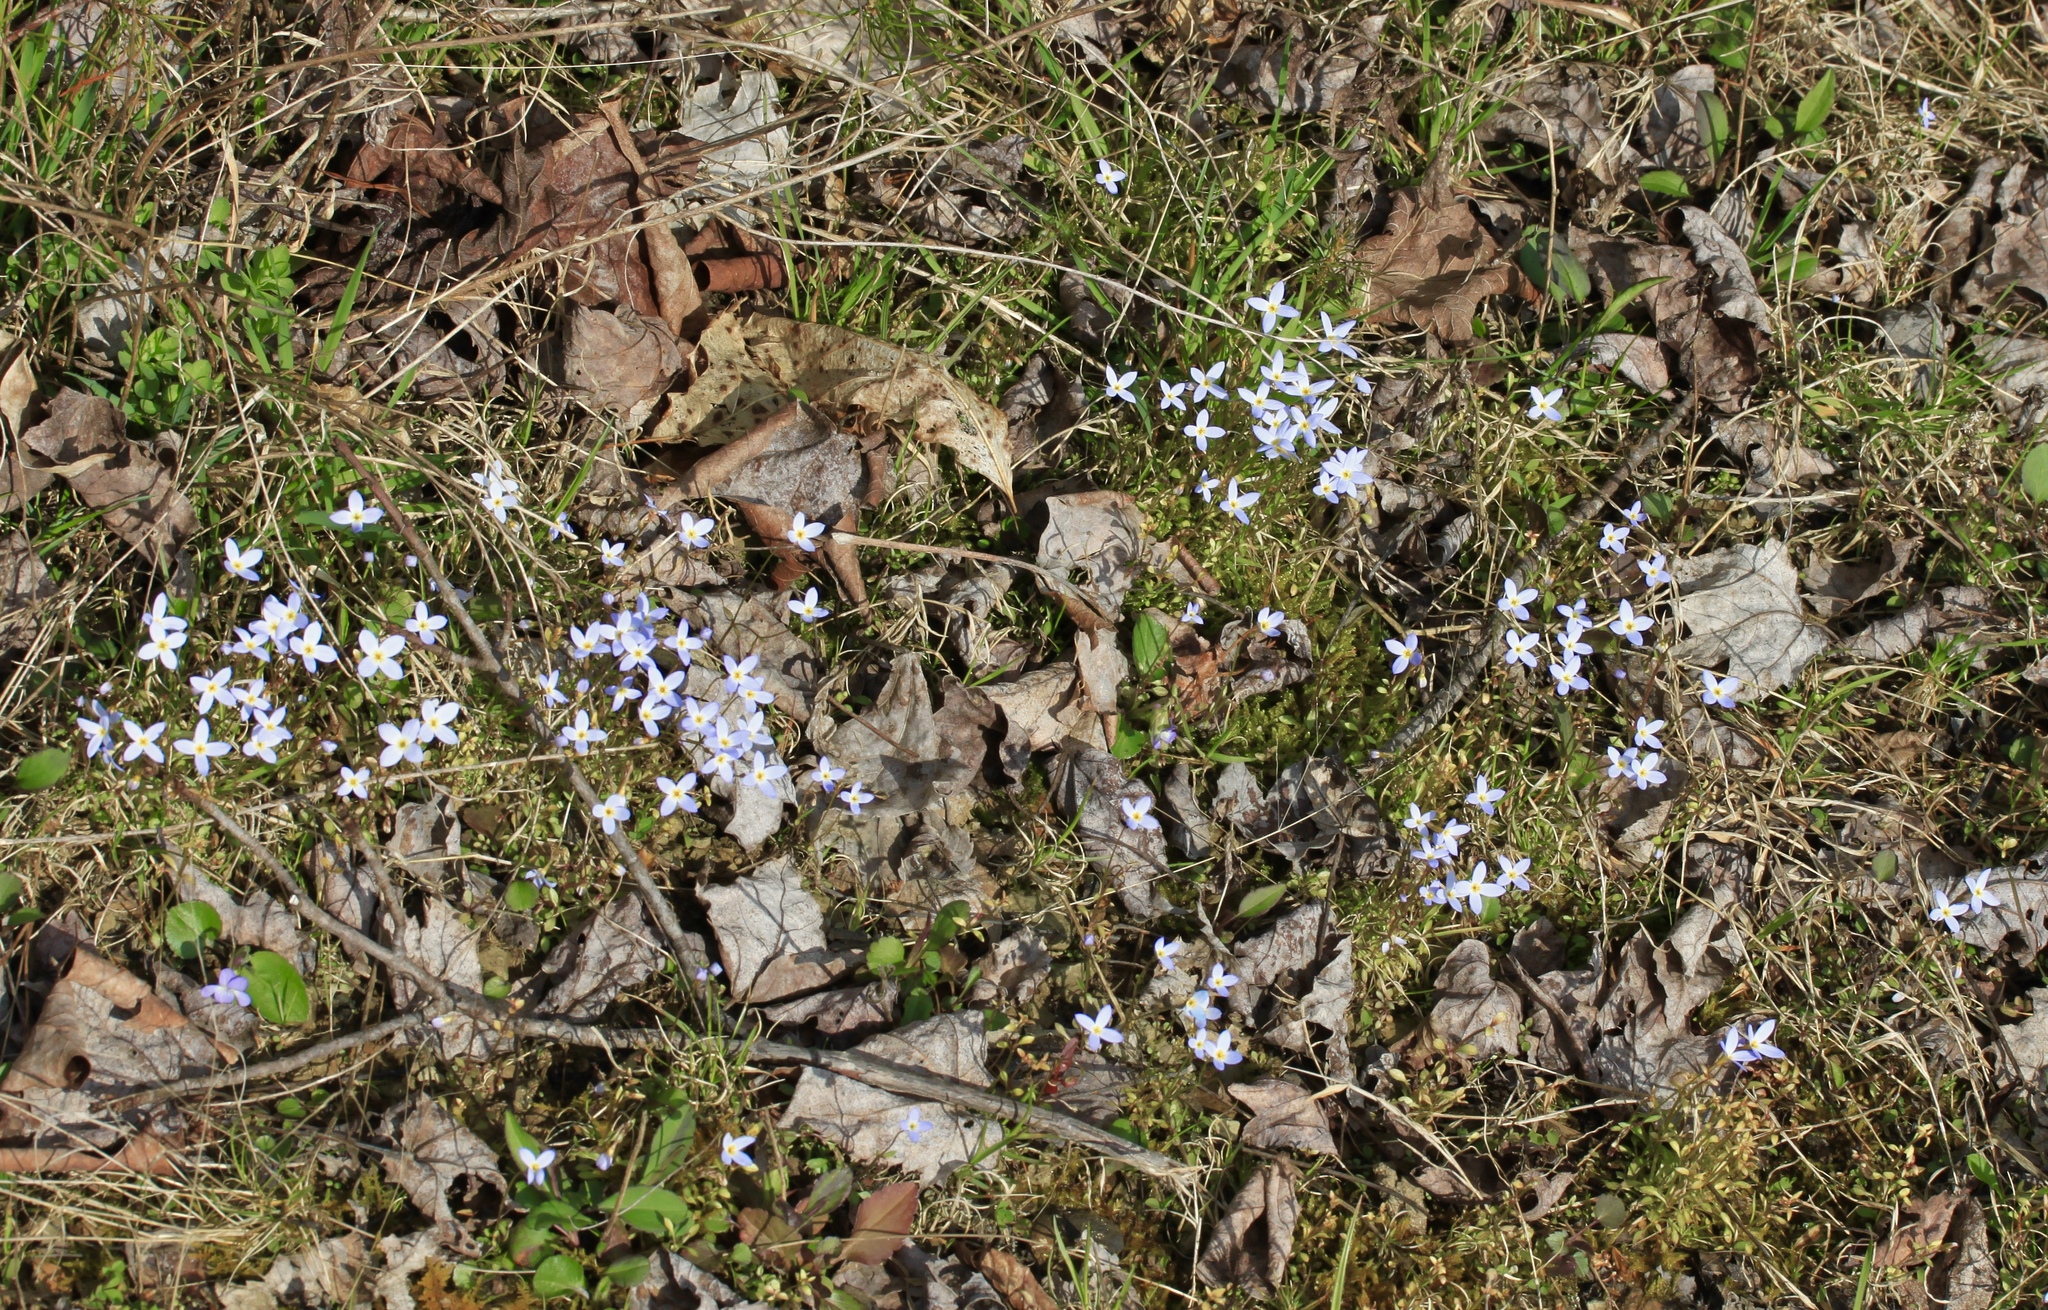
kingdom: Plantae
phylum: Tracheophyta
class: Magnoliopsida
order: Gentianales
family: Rubiaceae
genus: Houstonia
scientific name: Houstonia caerulea
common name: Bluets
